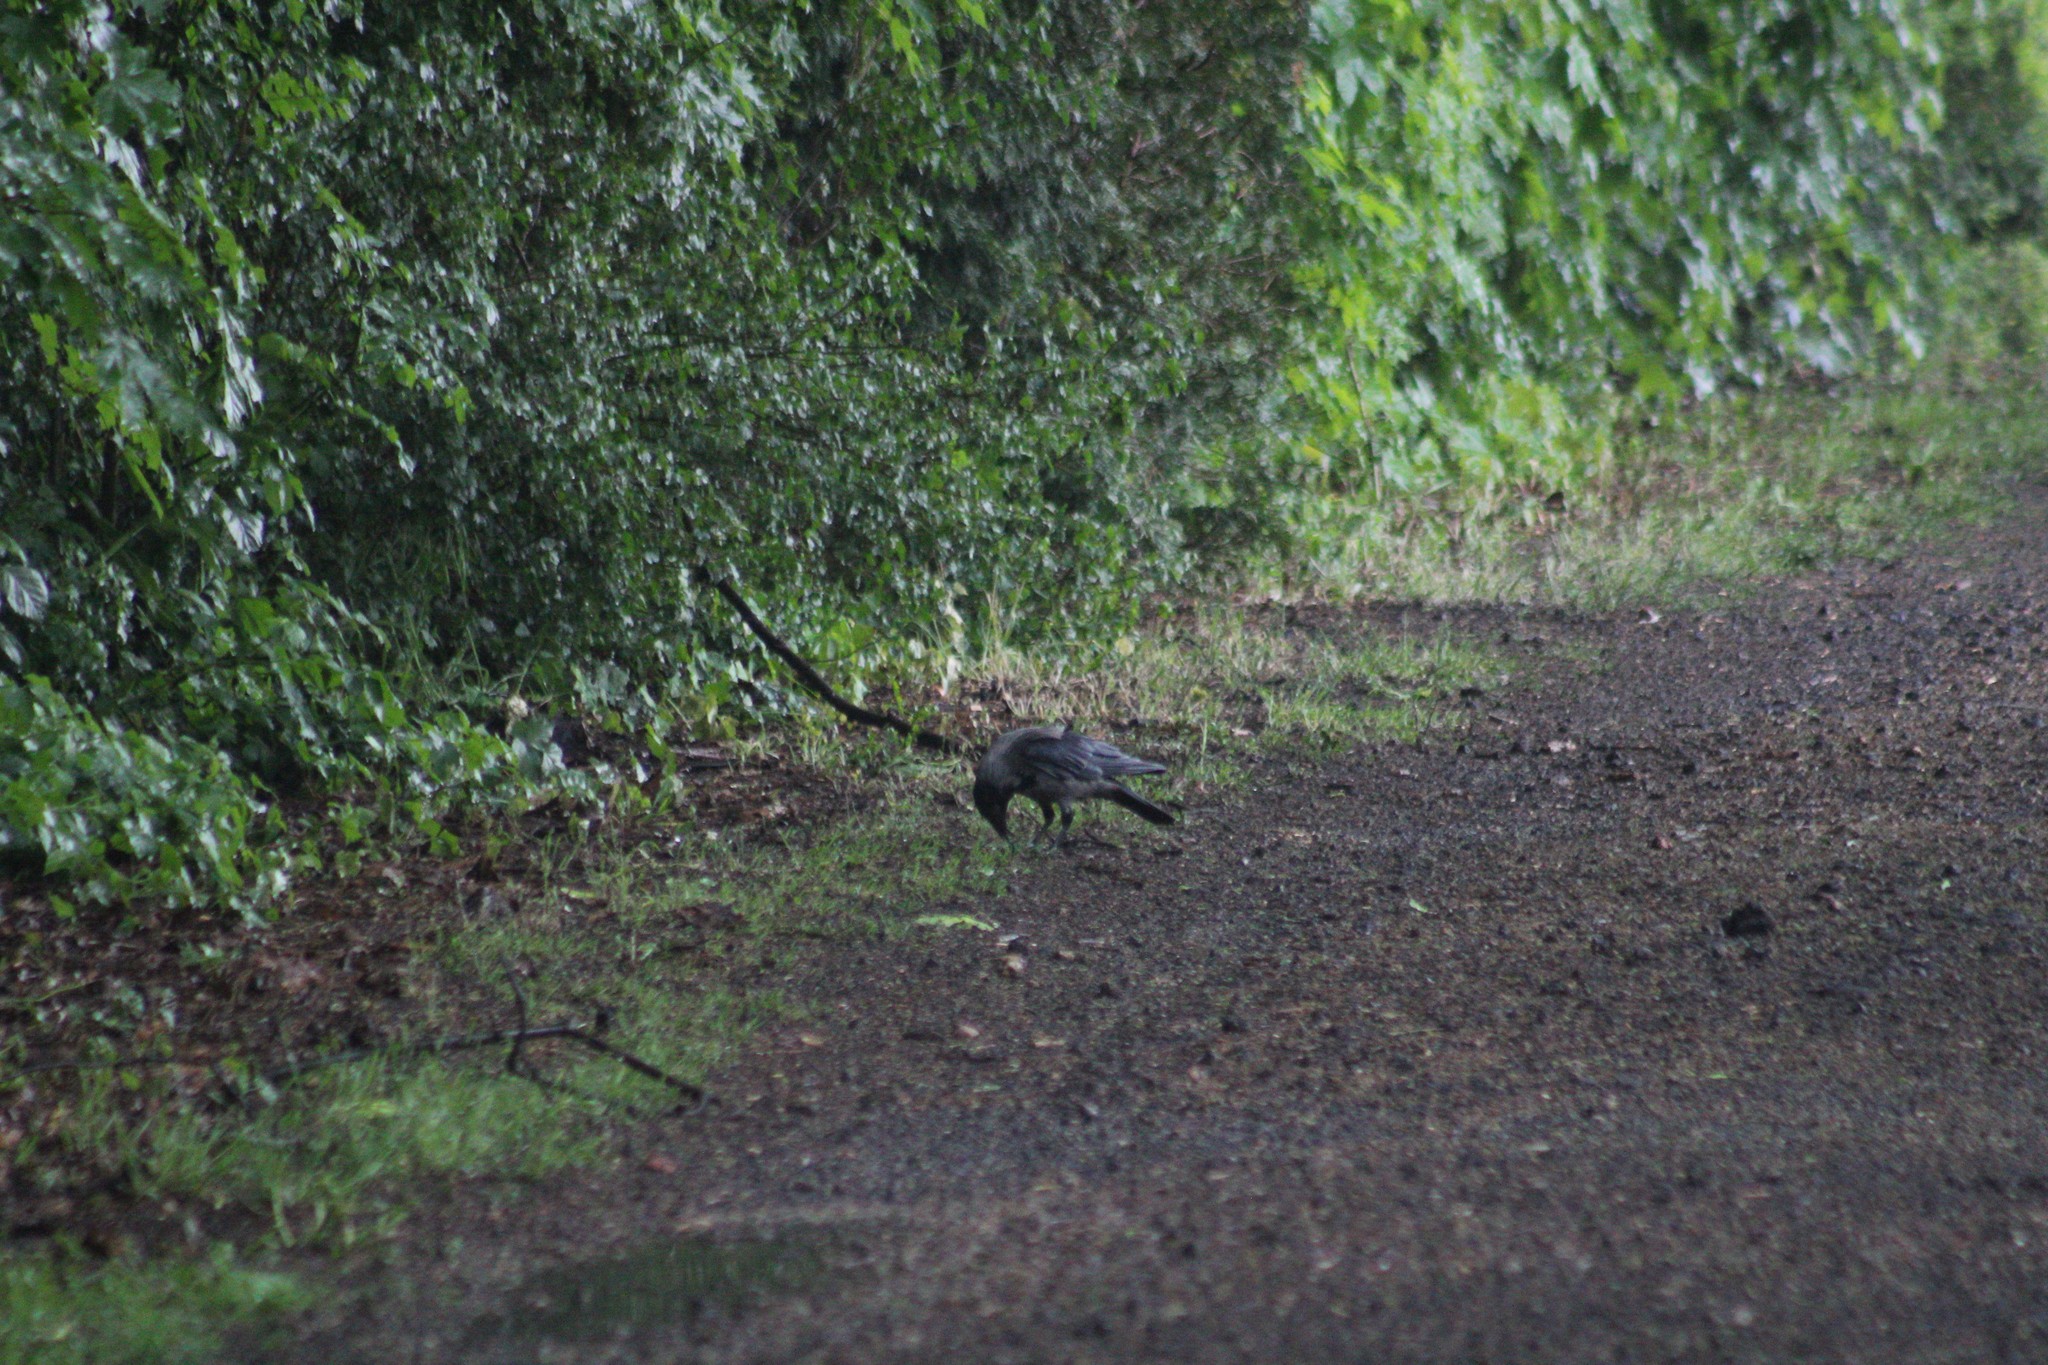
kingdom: Animalia
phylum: Chordata
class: Aves
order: Passeriformes
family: Corvidae
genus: Corvus
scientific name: Corvus cornix
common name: Hooded crow
